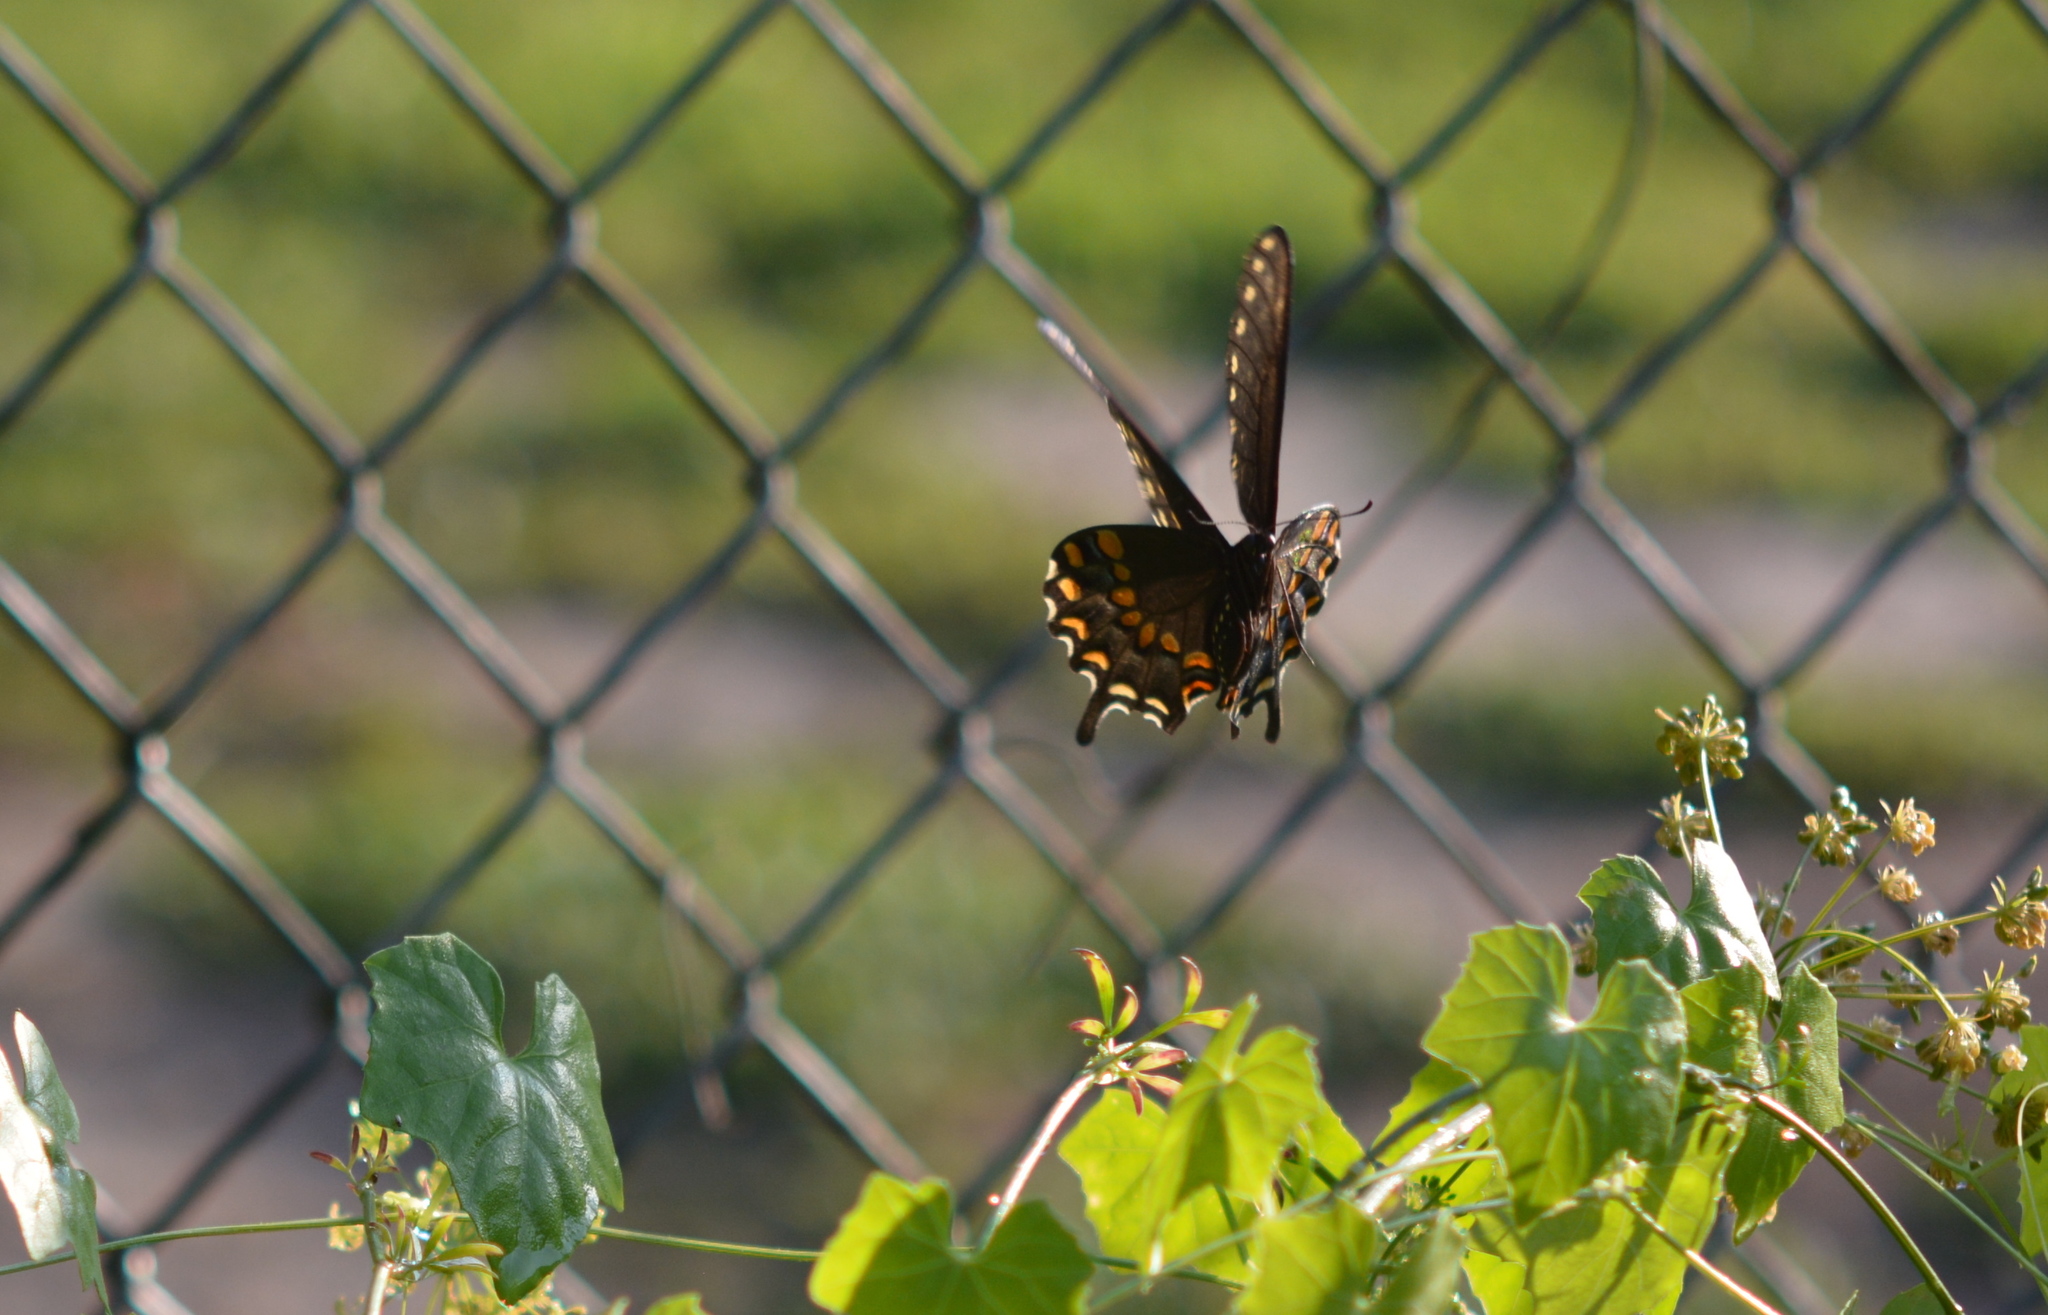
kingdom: Animalia
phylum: Arthropoda
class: Insecta
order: Lepidoptera
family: Papilionidae
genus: Papilio
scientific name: Papilio polyxenes
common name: Black swallowtail
